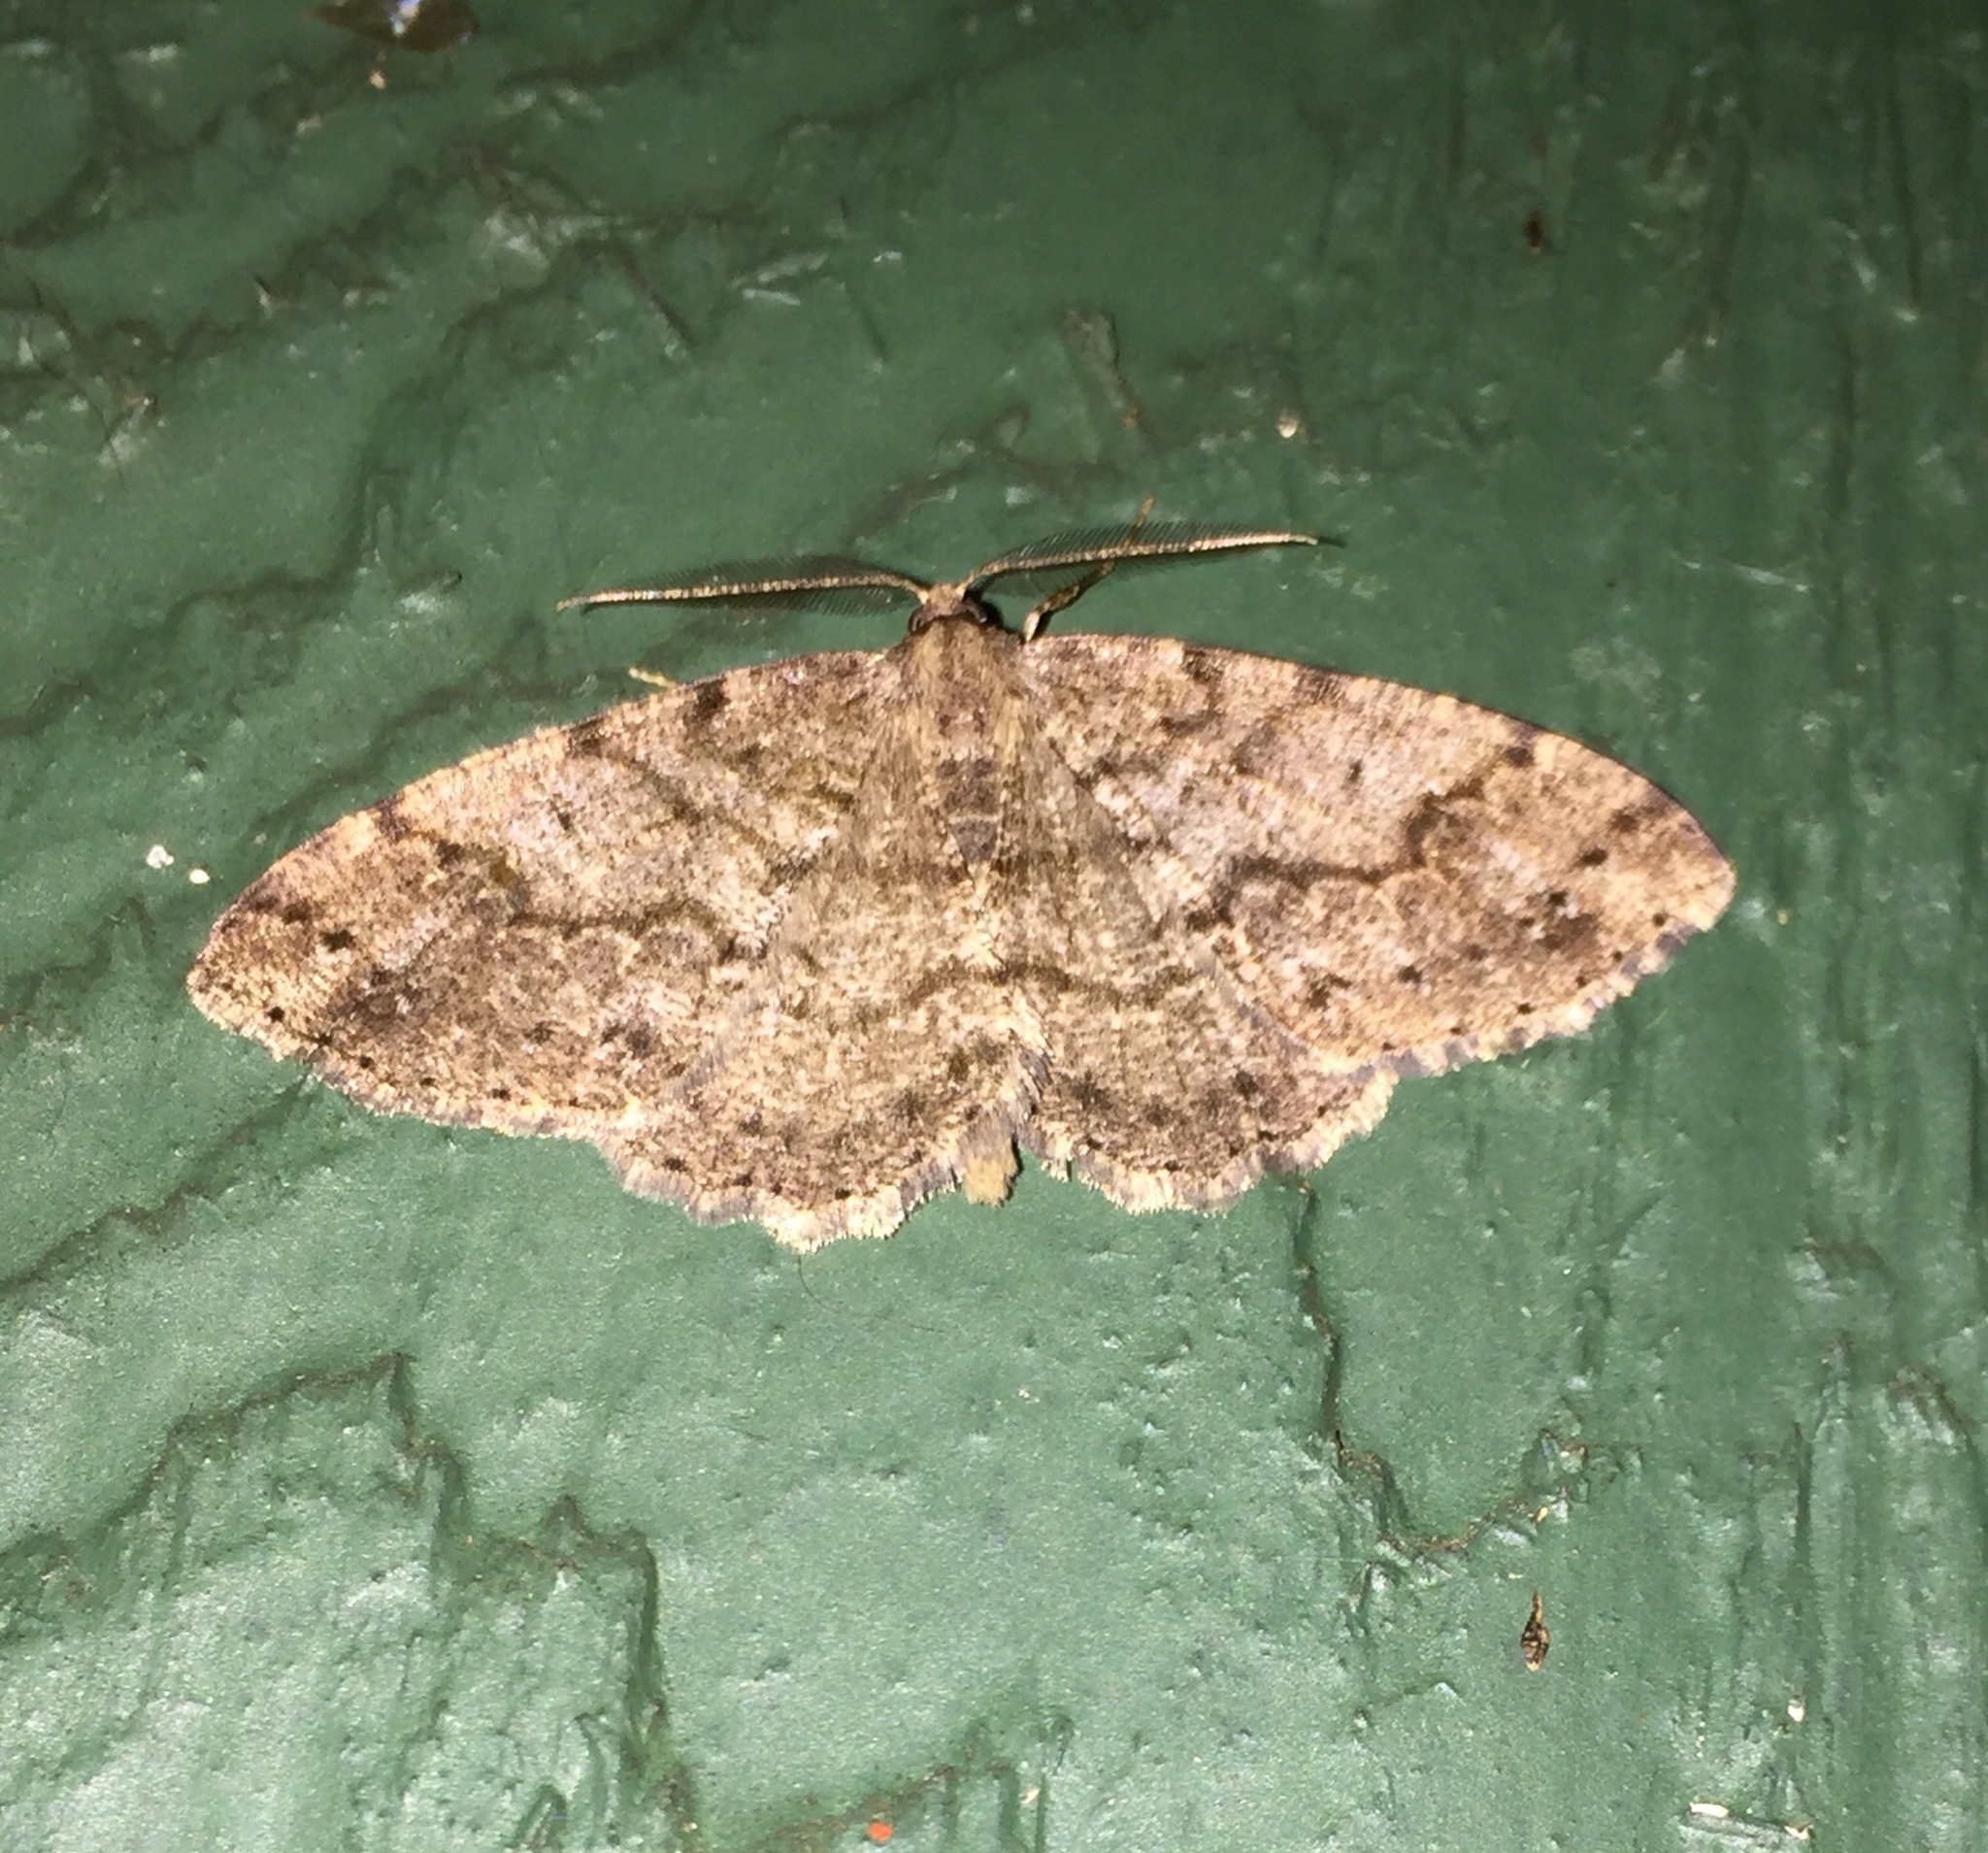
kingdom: Animalia
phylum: Arthropoda
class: Insecta
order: Lepidoptera
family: Geometridae
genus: Melanolophia
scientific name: Melanolophia imitata
